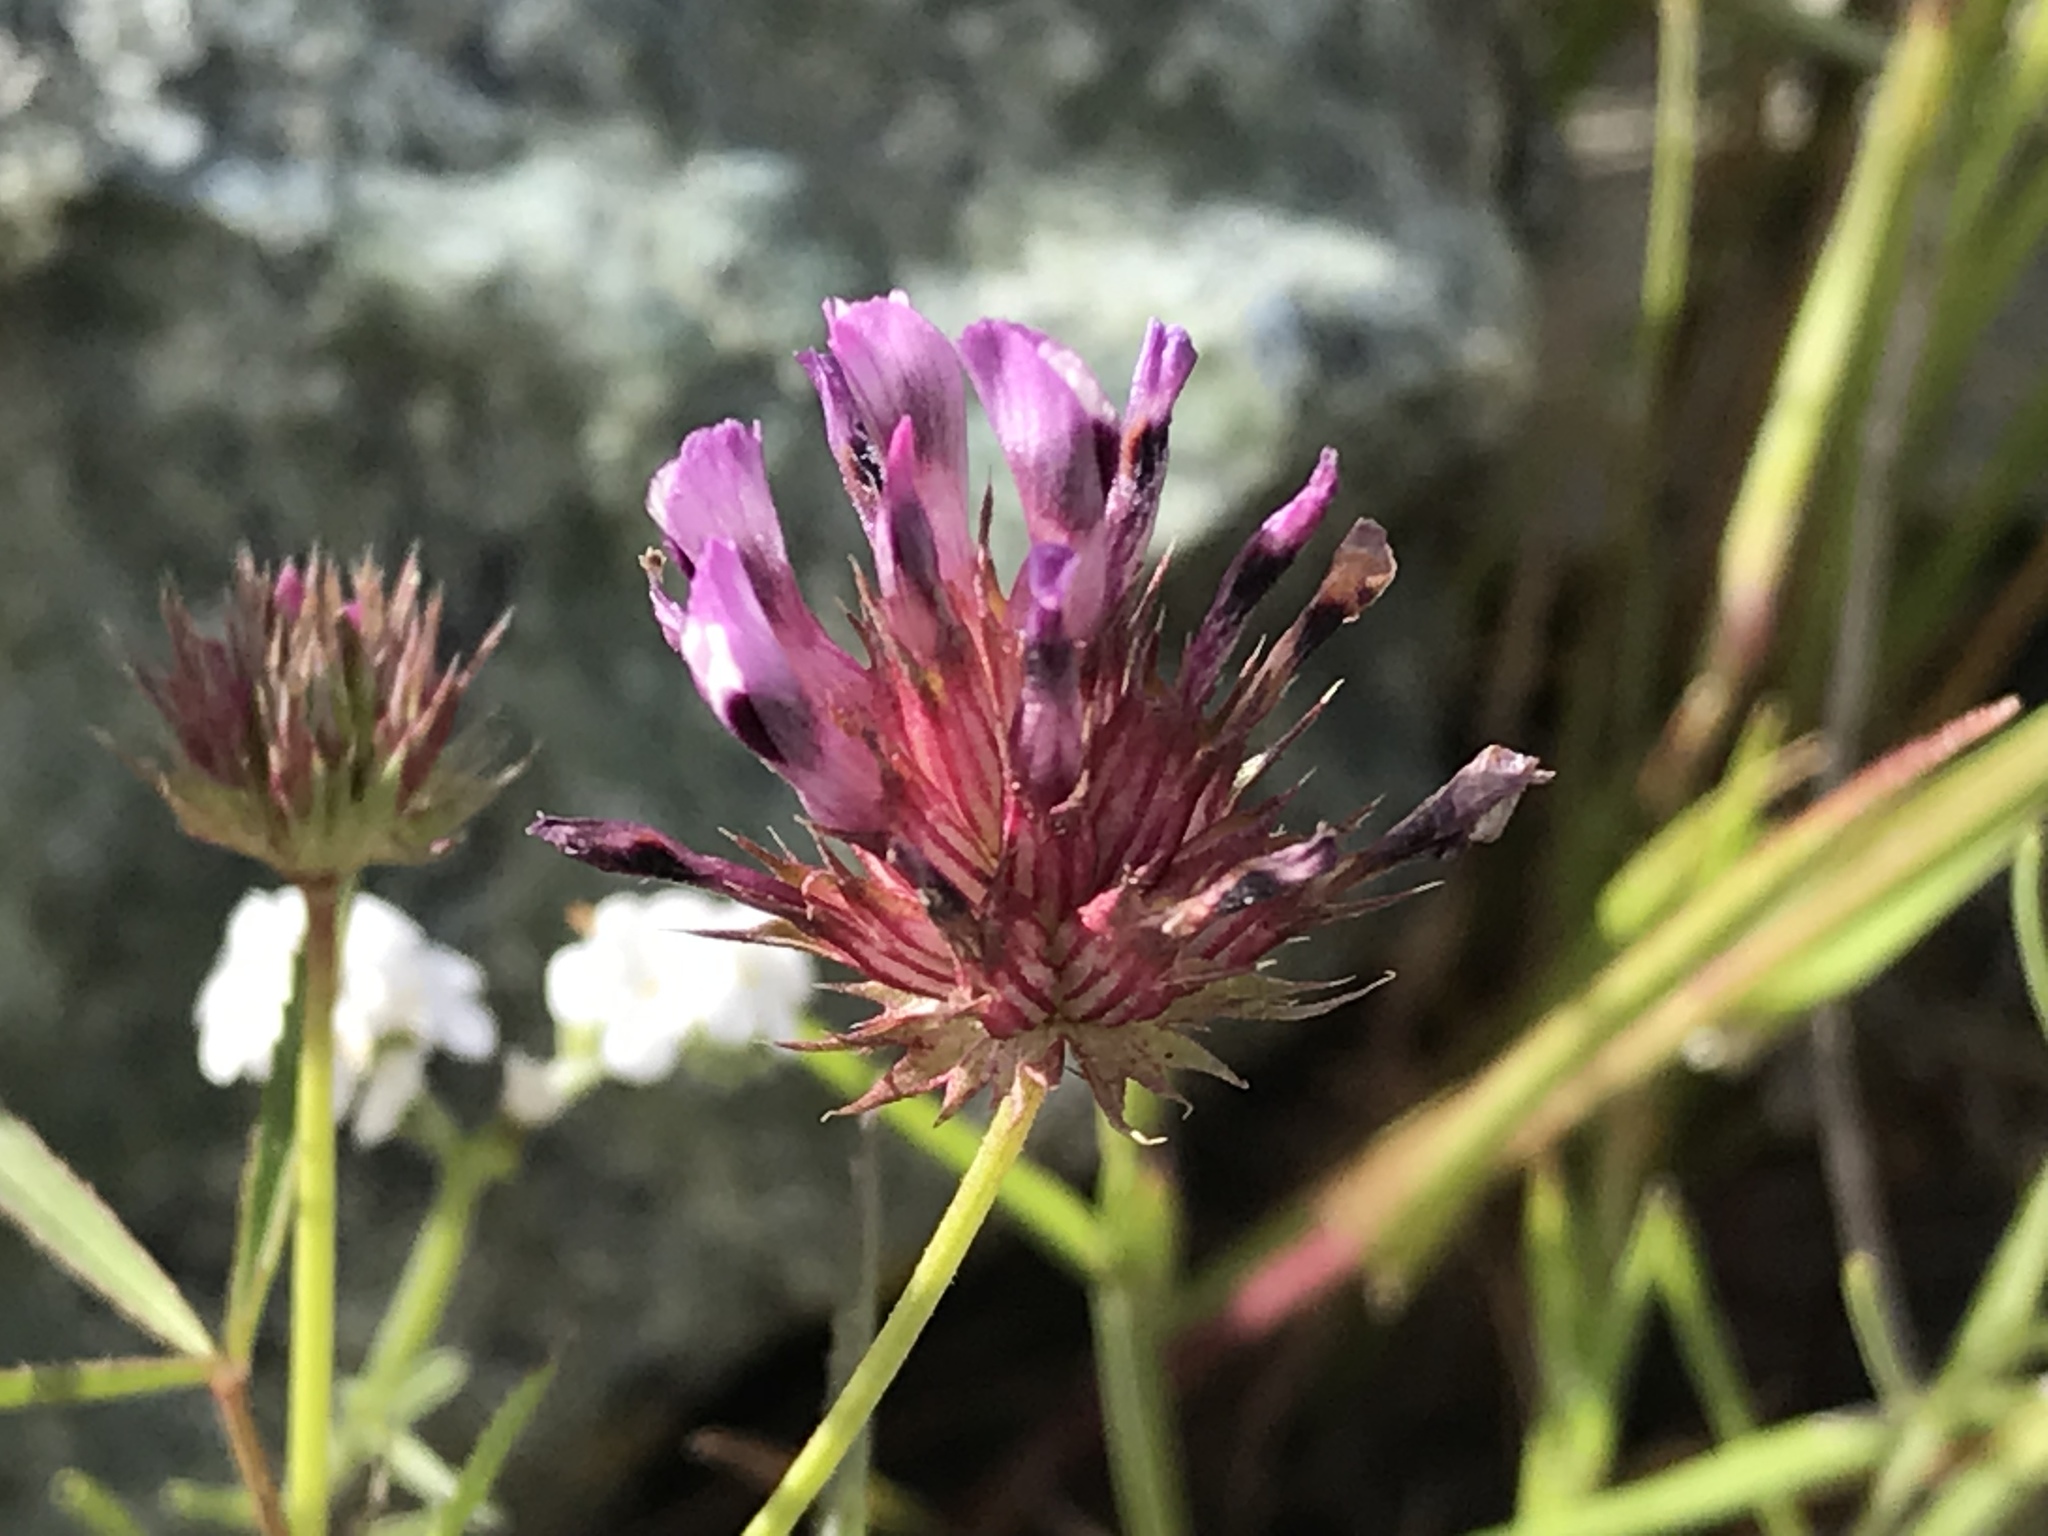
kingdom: Plantae
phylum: Tracheophyta
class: Magnoliopsida
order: Fabales
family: Fabaceae
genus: Trifolium
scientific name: Trifolium willdenovii
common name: Tomcat clover
